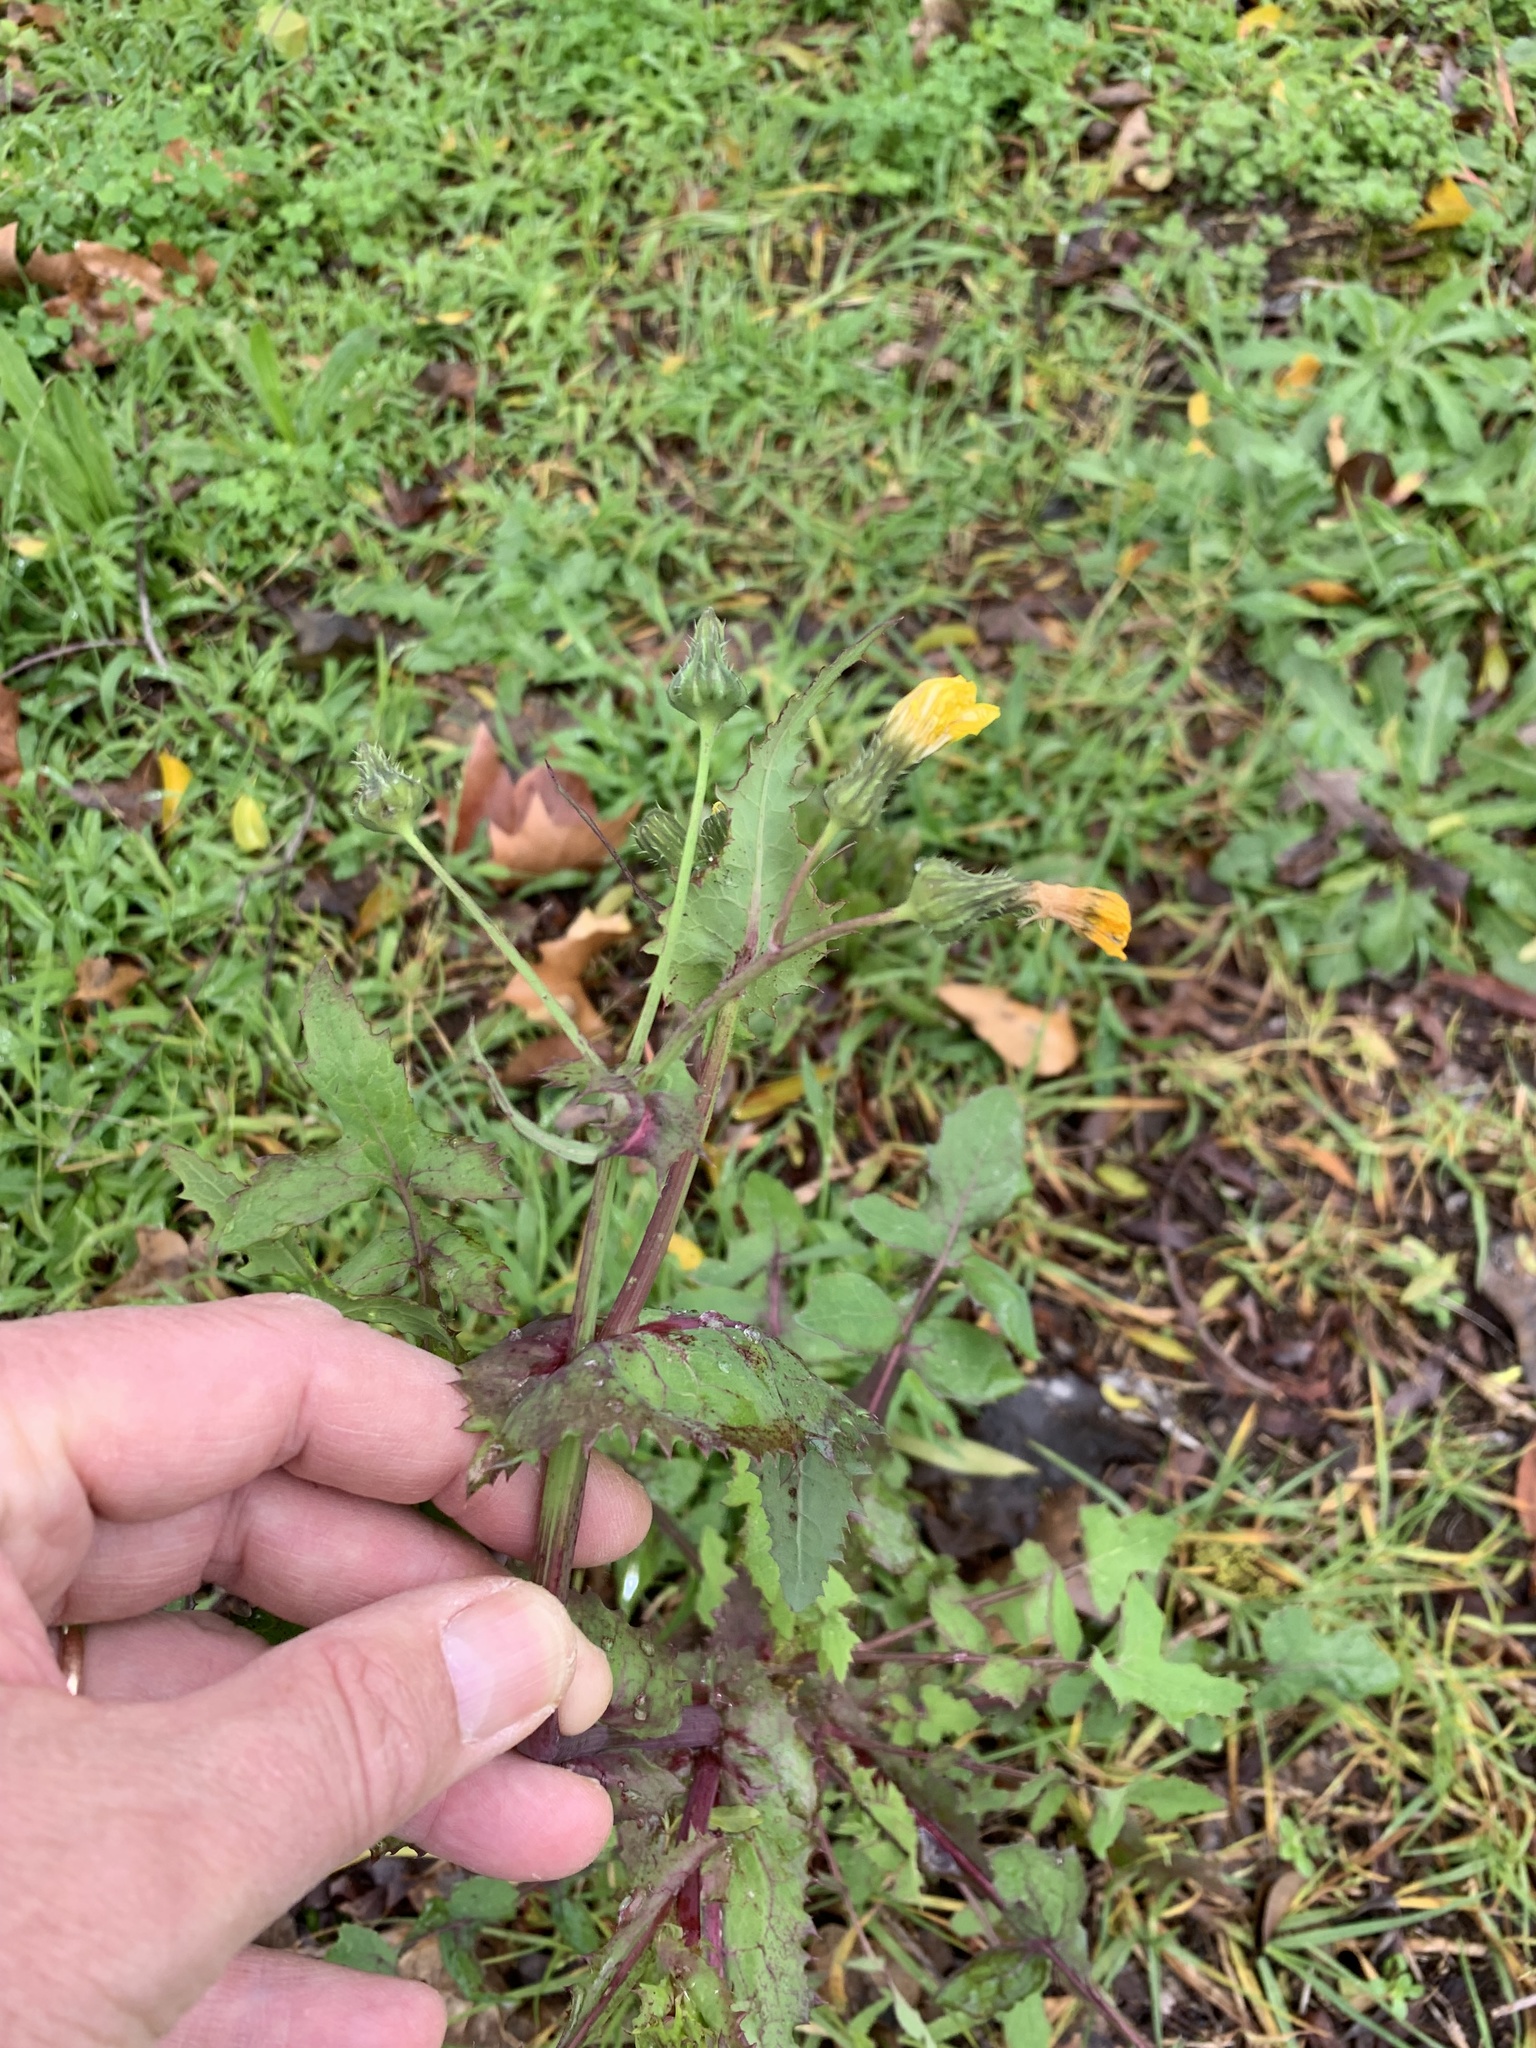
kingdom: Plantae
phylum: Tracheophyta
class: Magnoliopsida
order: Asterales
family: Asteraceae
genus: Sonchus
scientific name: Sonchus oleraceus
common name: Common sowthistle
